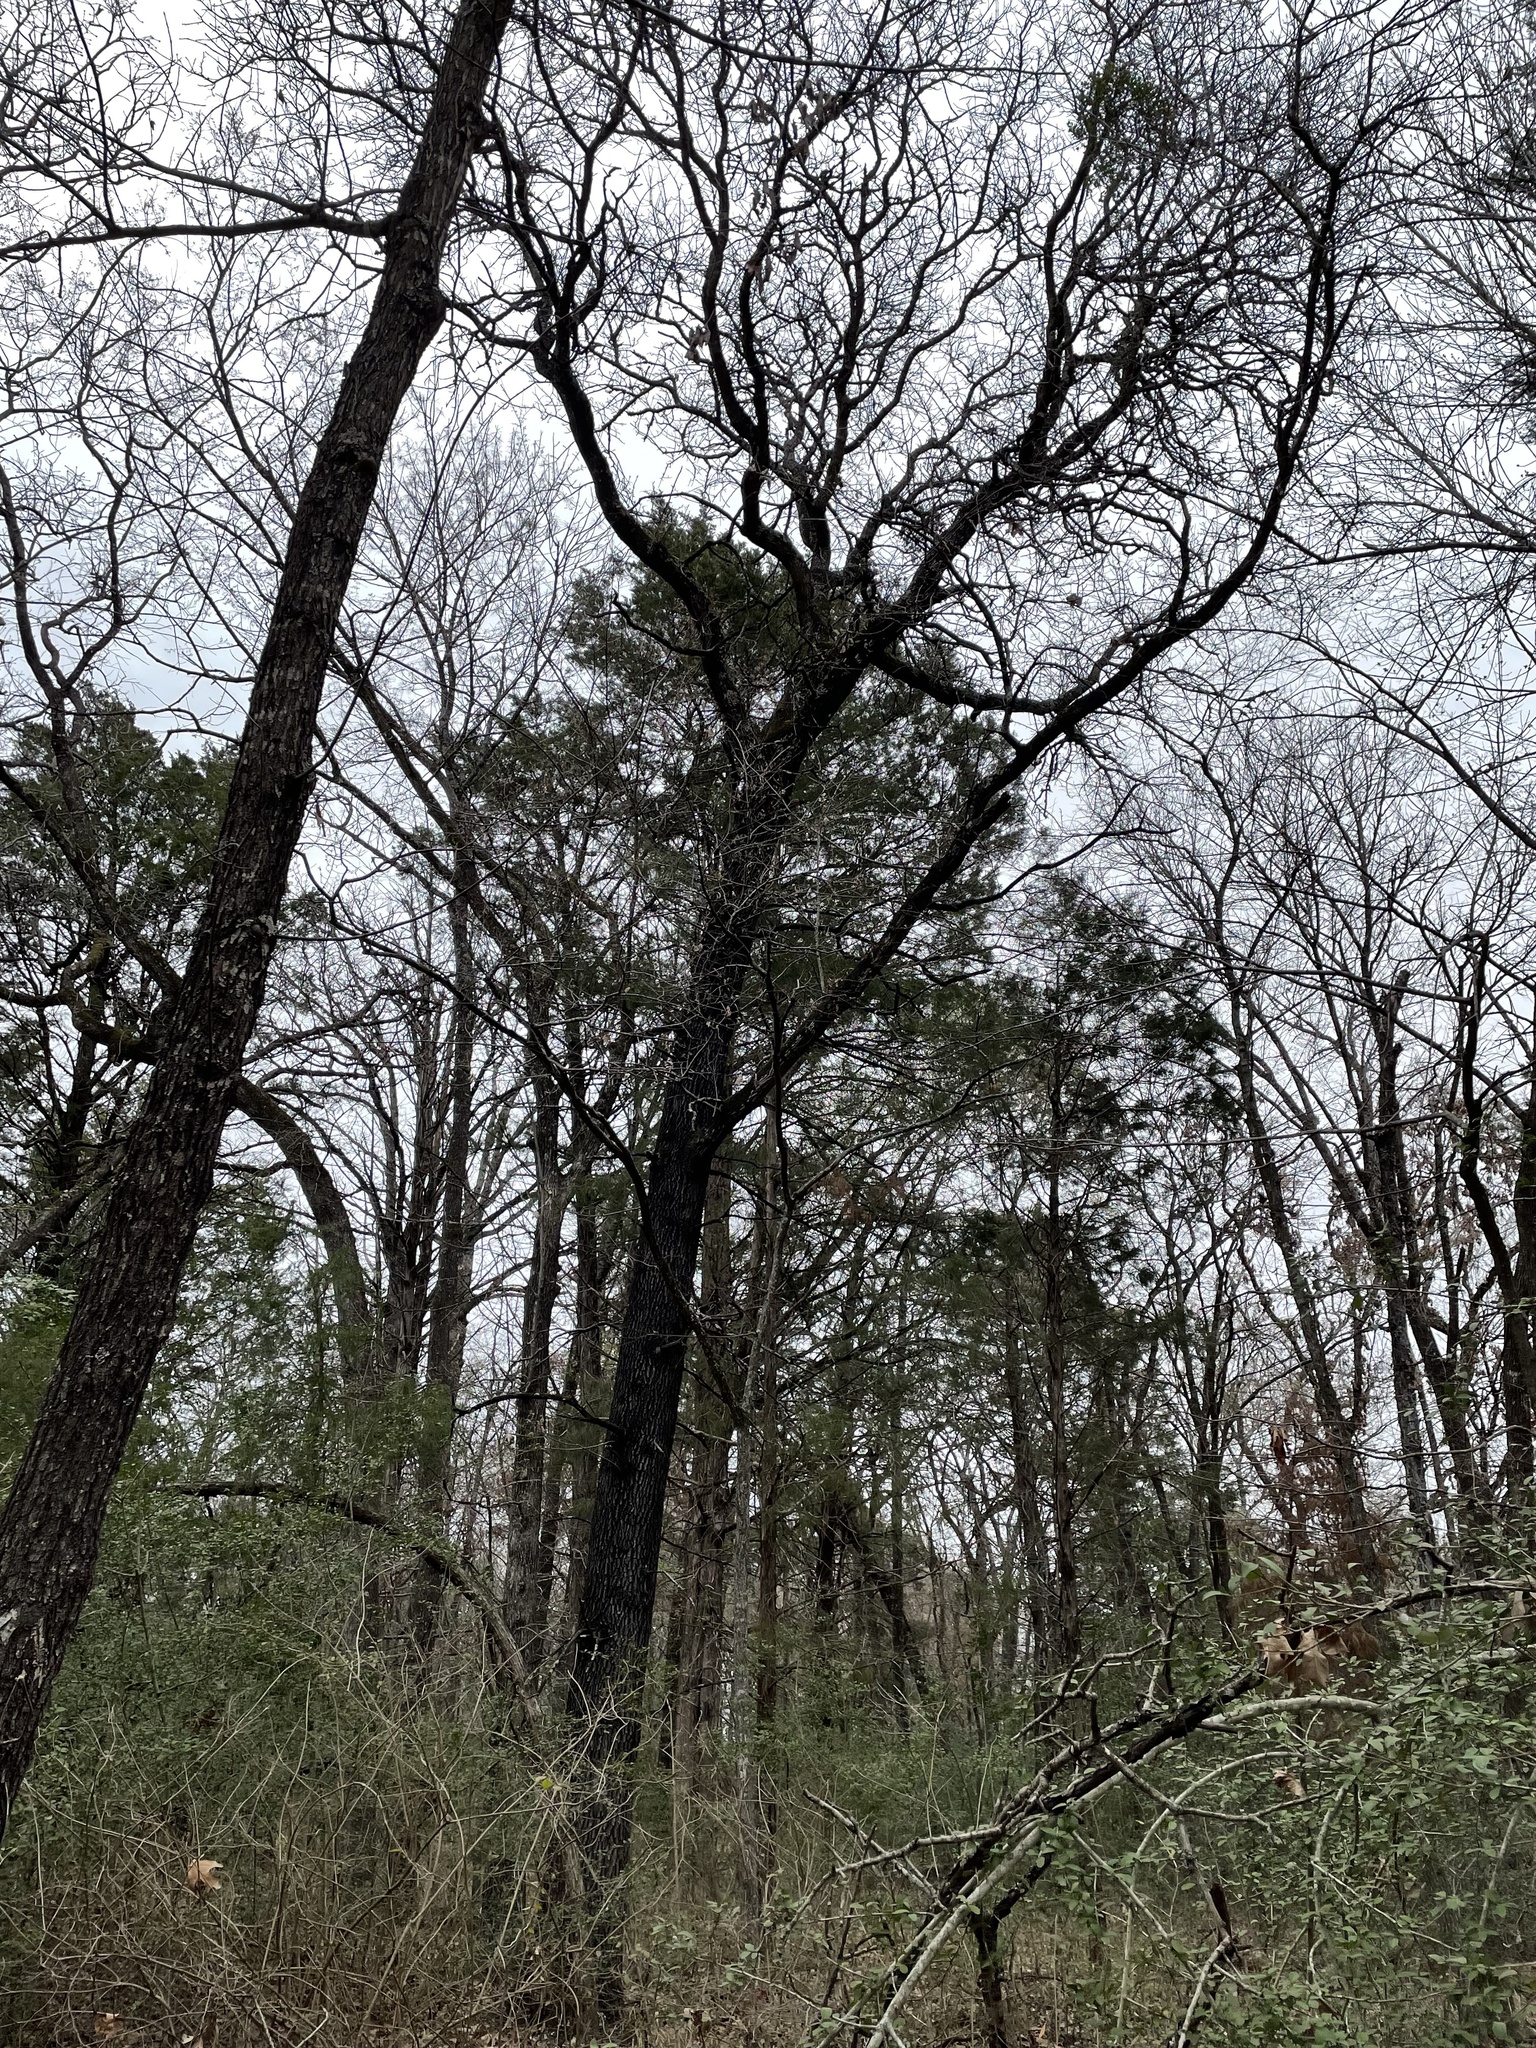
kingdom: Plantae
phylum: Tracheophyta
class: Magnoliopsida
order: Fagales
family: Fagaceae
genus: Quercus
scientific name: Quercus marilandica
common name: Blackjack oak
